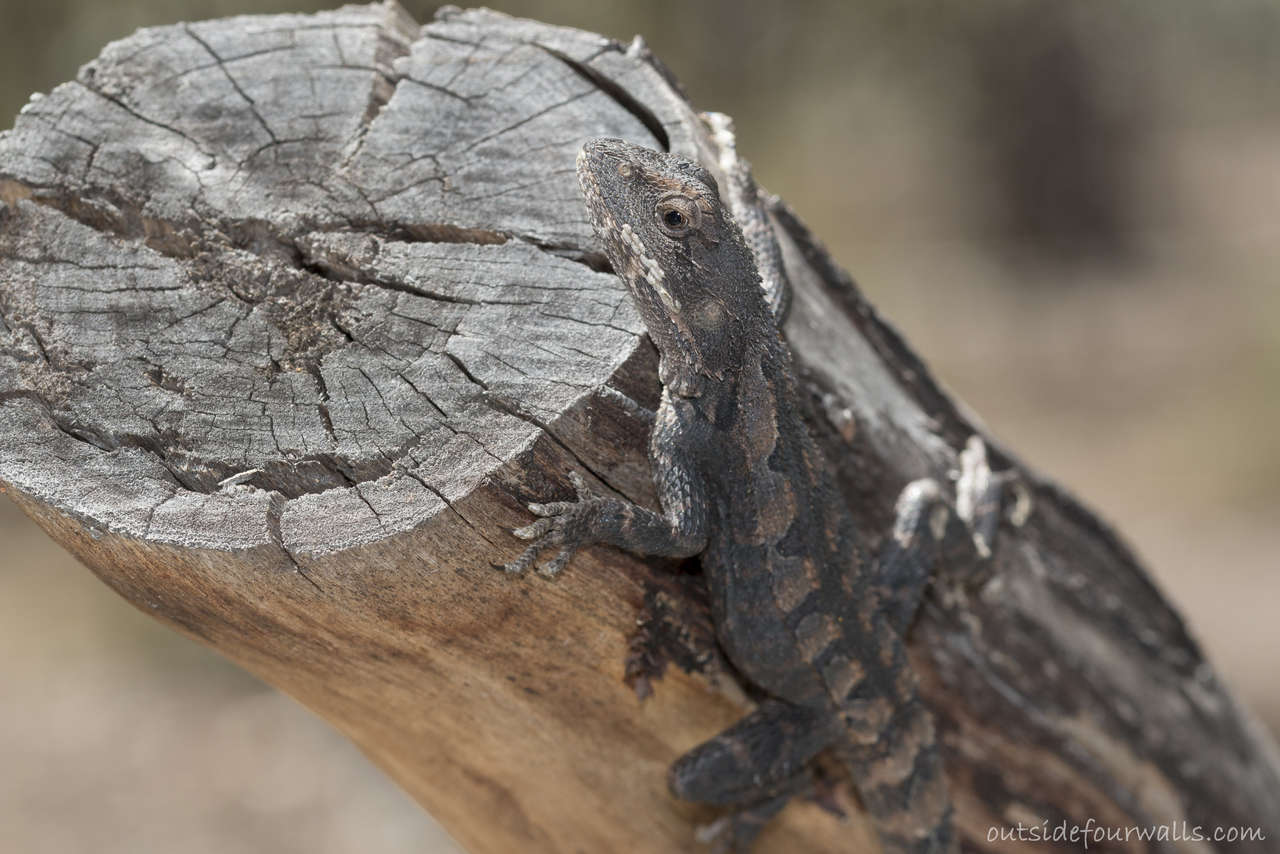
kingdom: Animalia
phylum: Chordata
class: Squamata
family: Agamidae
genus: Amphibolurus
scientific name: Amphibolurus muricatus
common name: Jacky lizard
